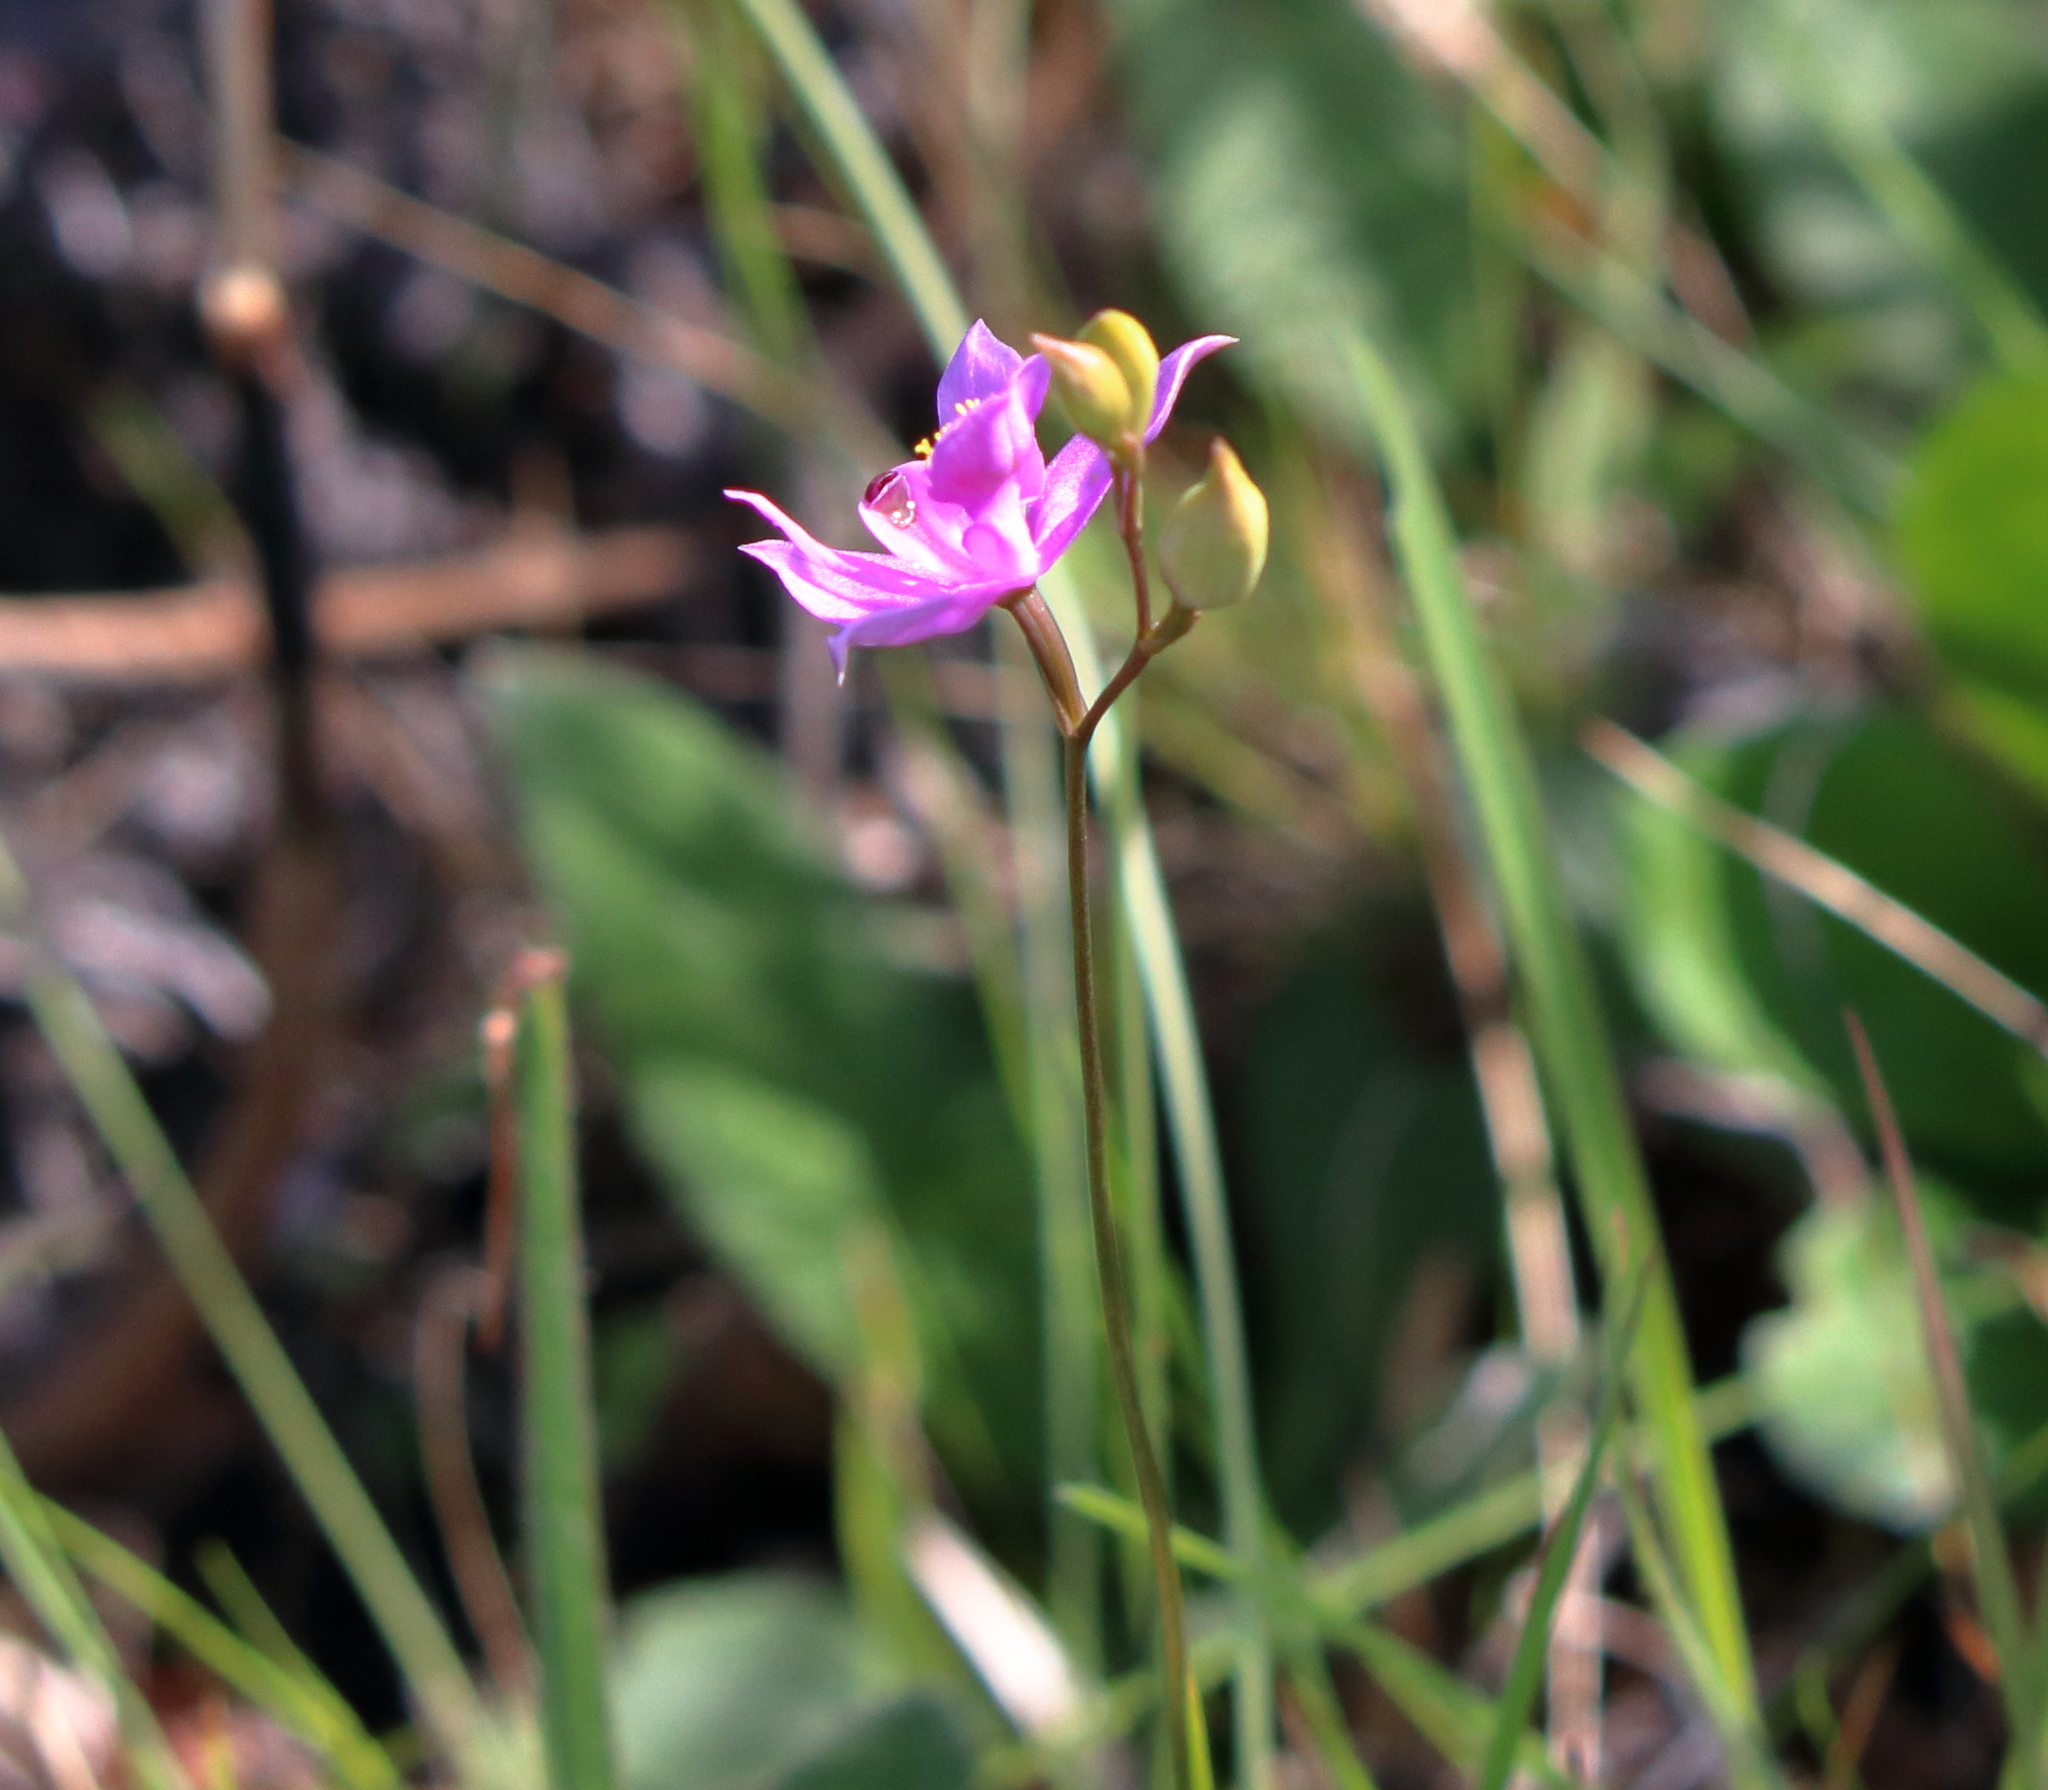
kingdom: Plantae
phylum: Tracheophyta
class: Liliopsida
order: Asparagales
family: Orchidaceae
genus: Calopogon
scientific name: Calopogon barbatus
